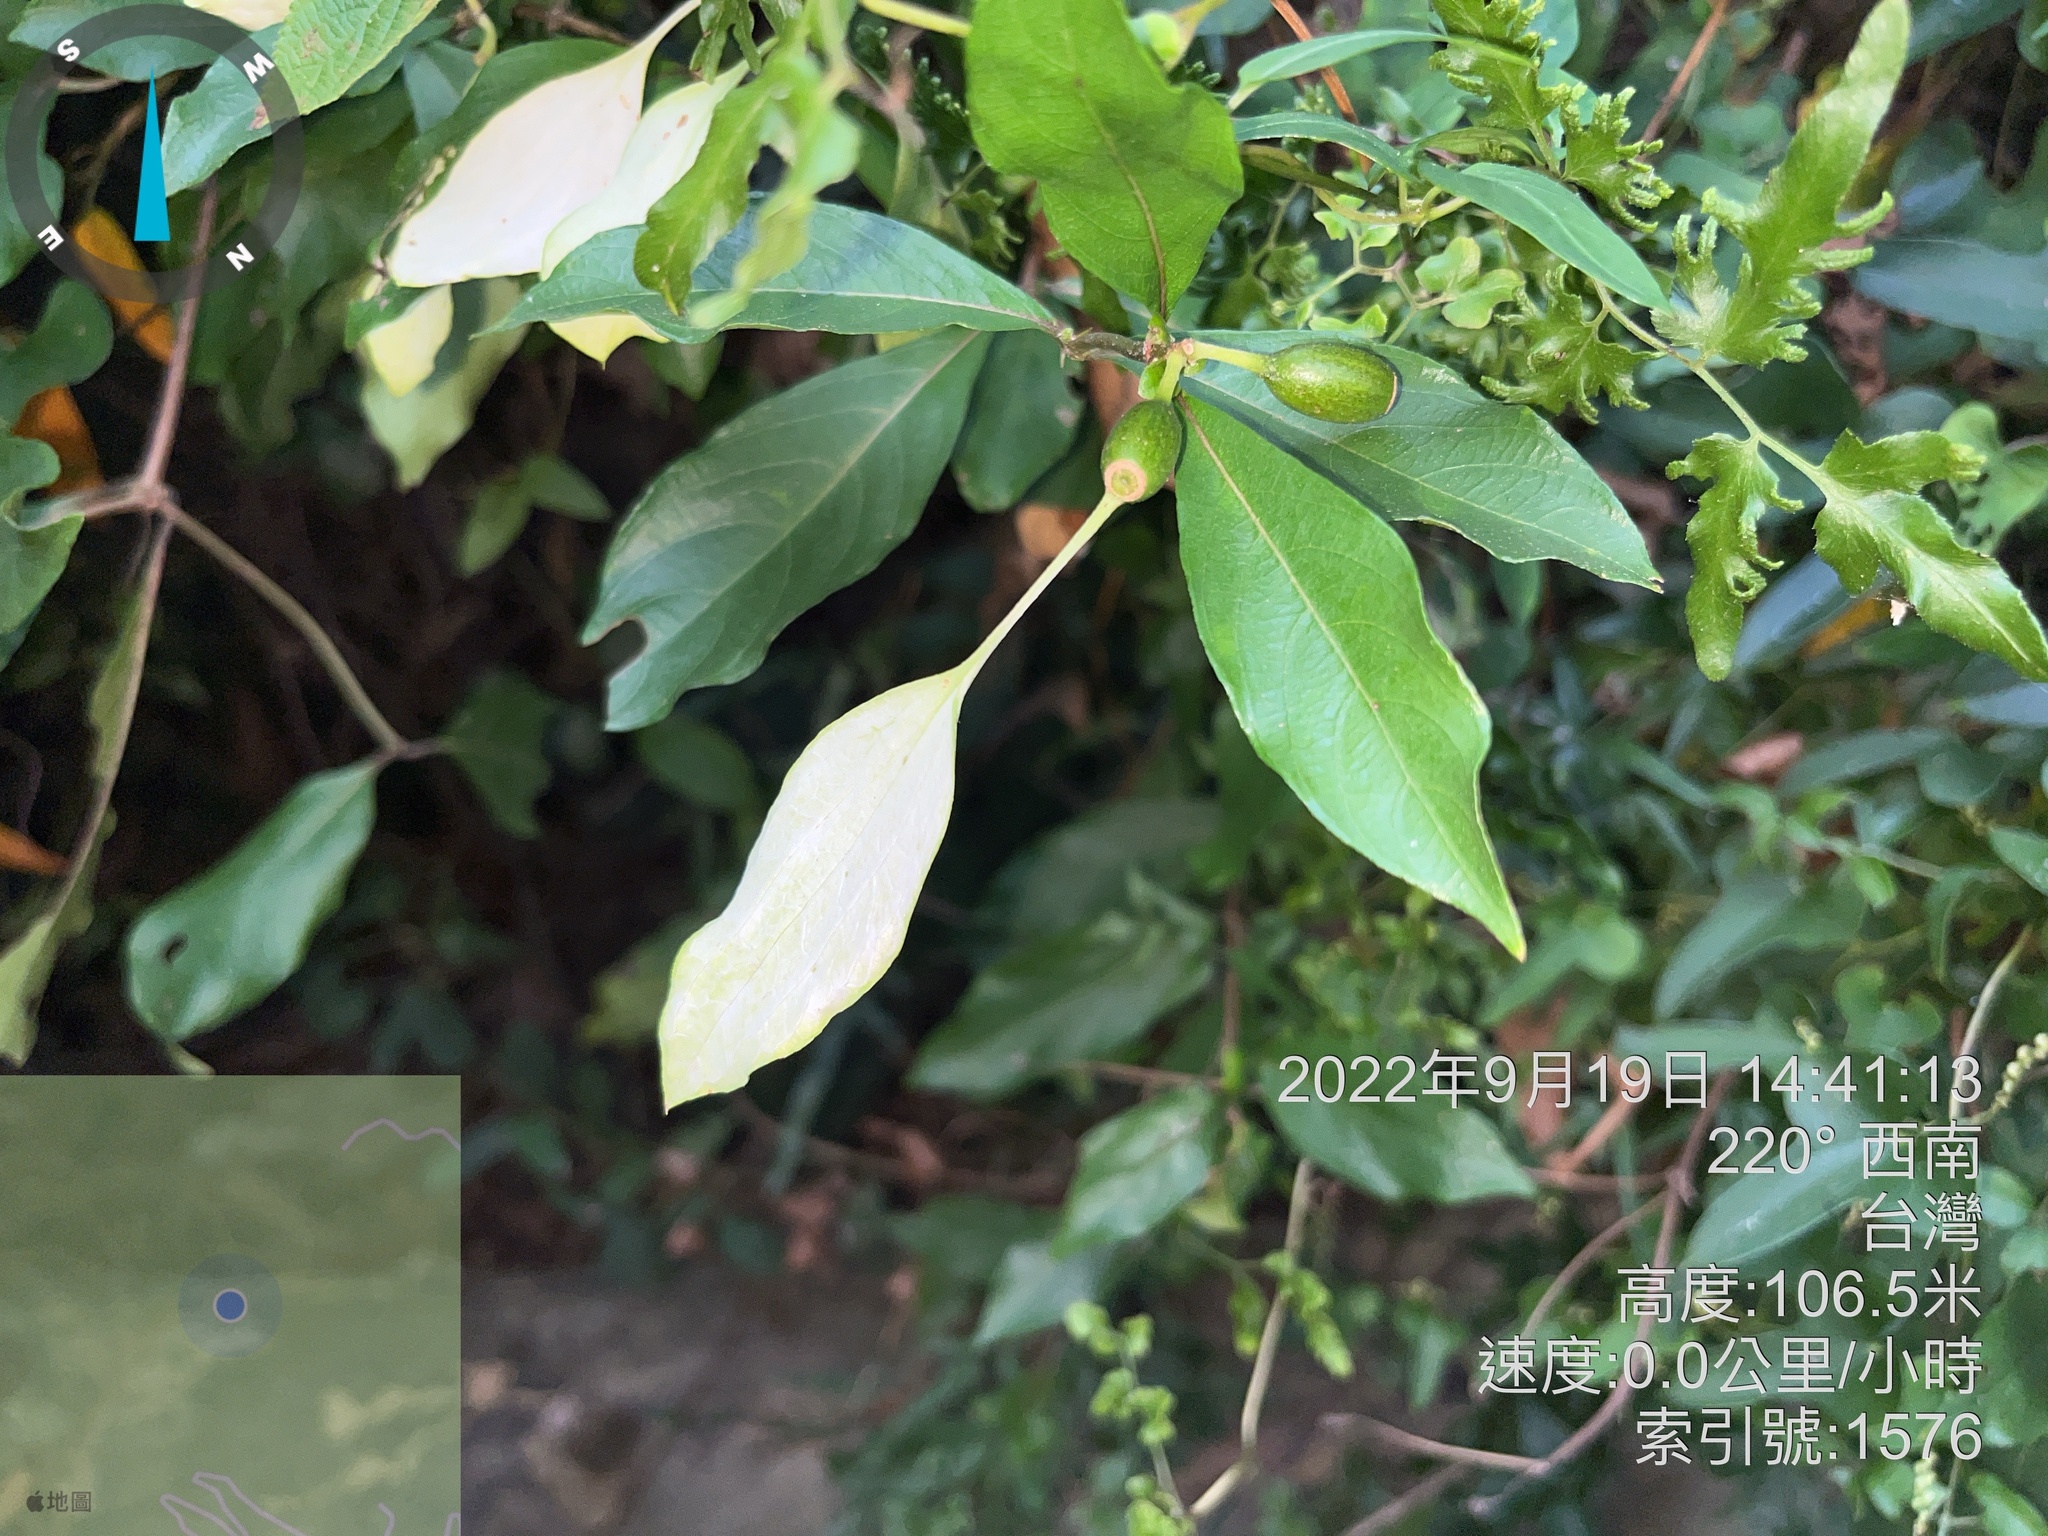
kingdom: Plantae
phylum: Tracheophyta
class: Magnoliopsida
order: Gentianales
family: Rubiaceae
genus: Mussaenda
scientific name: Mussaenda parviflora
